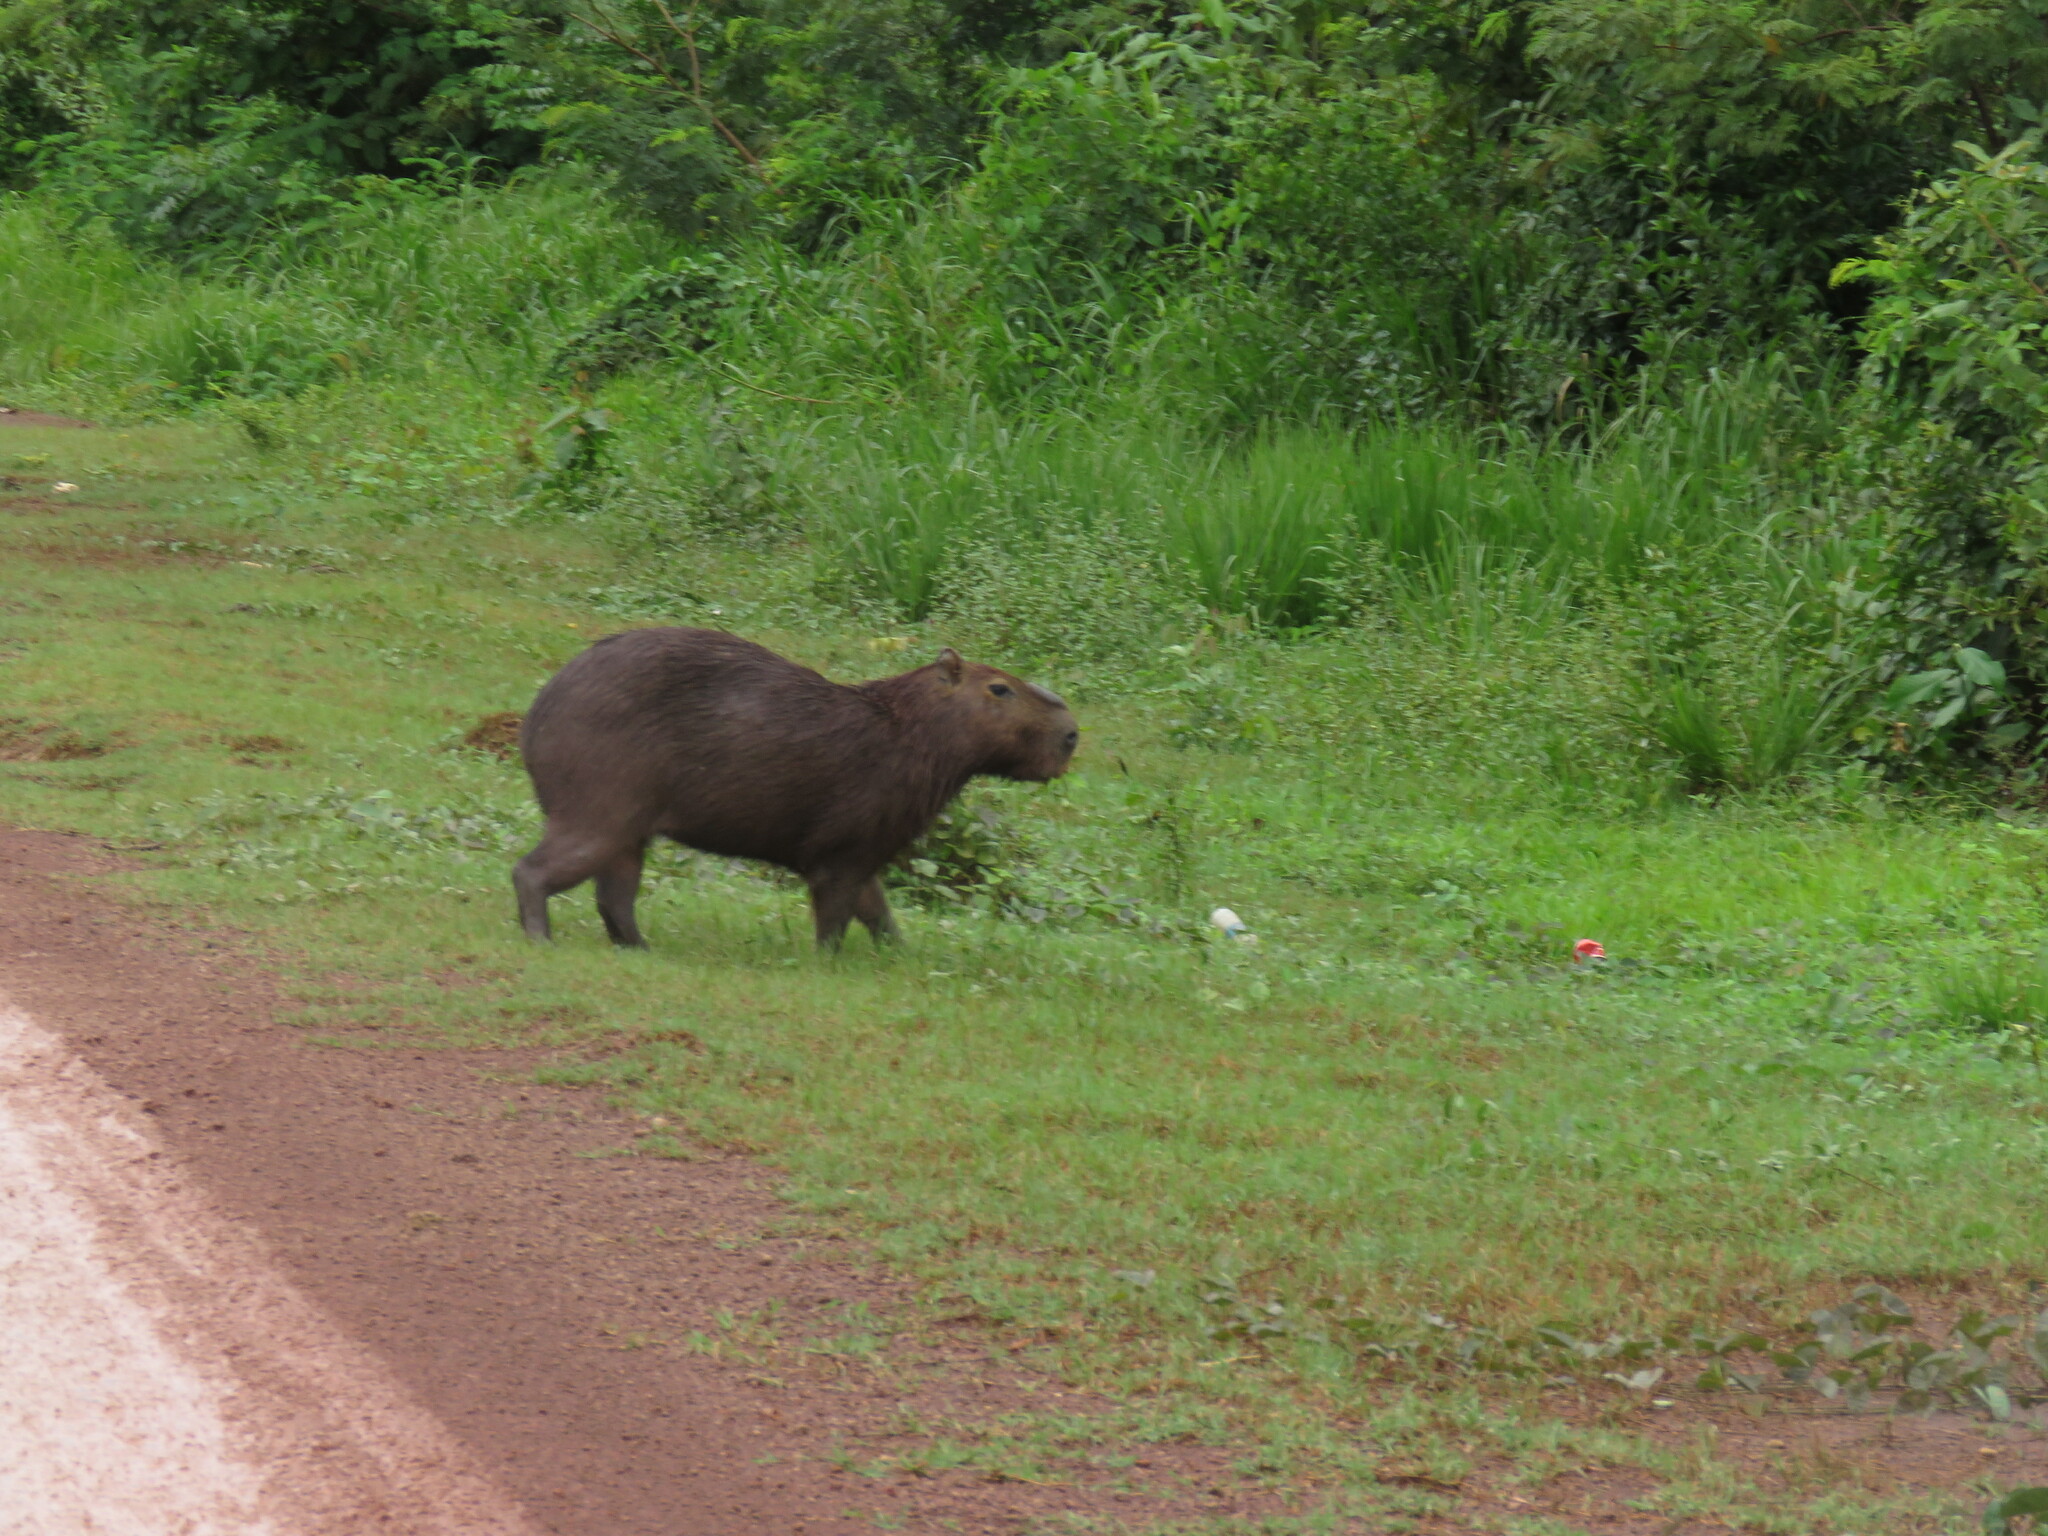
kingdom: Animalia
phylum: Chordata
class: Mammalia
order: Rodentia
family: Caviidae
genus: Hydrochoerus
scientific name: Hydrochoerus hydrochaeris
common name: Capybara
